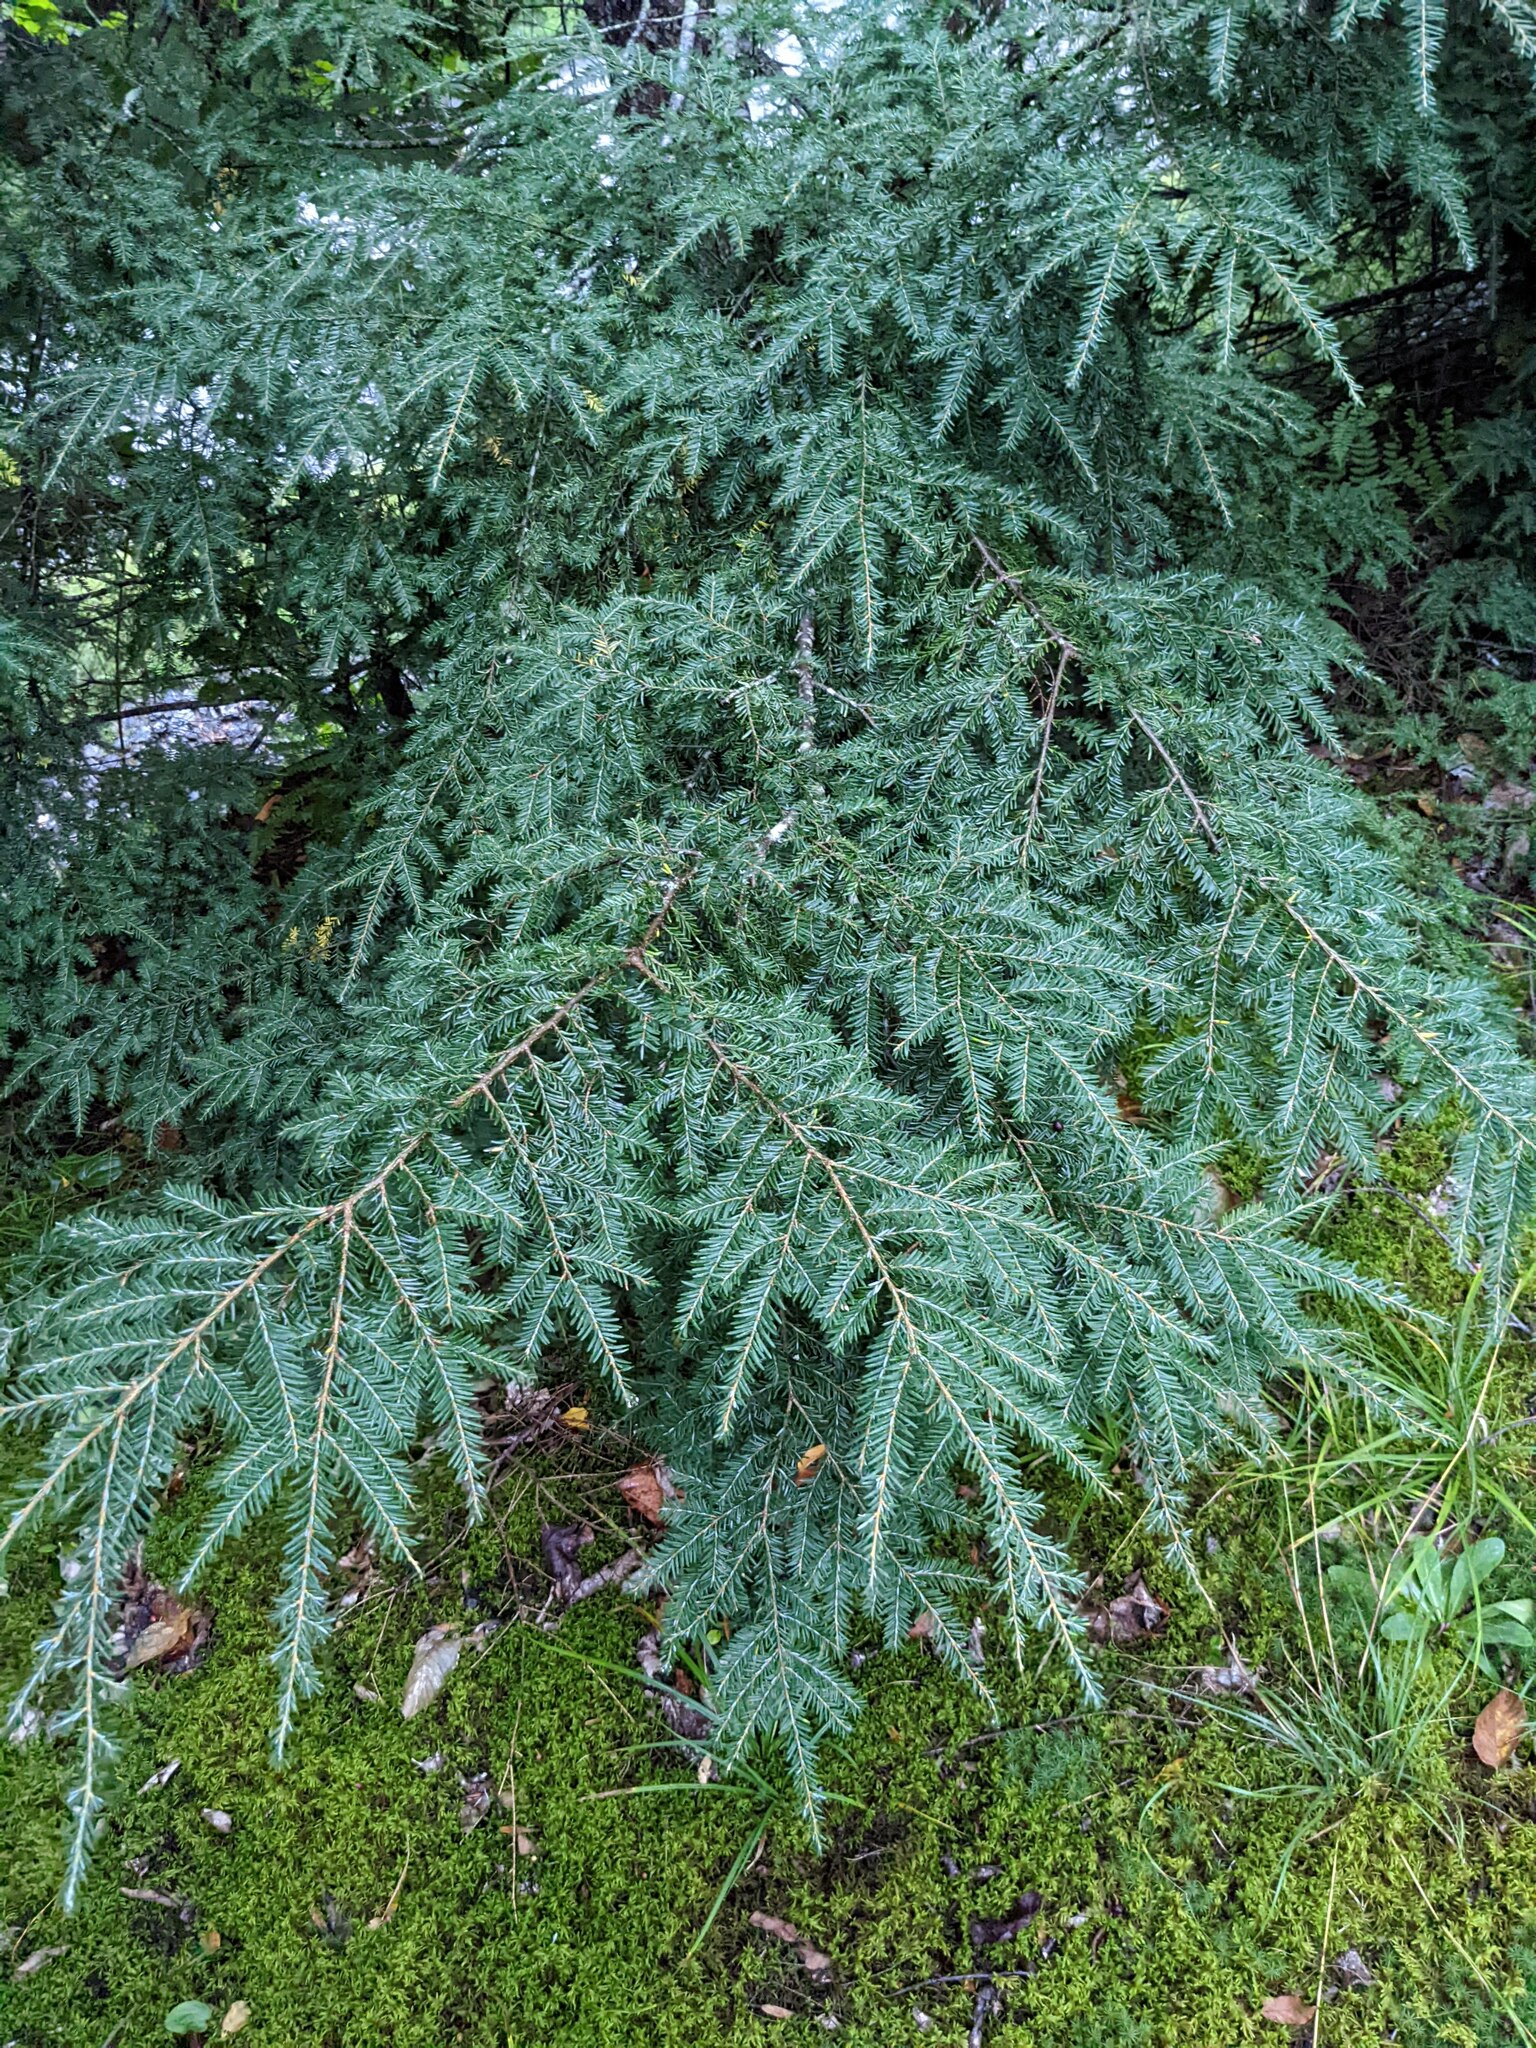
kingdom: Plantae
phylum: Tracheophyta
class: Pinopsida
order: Pinales
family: Pinaceae
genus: Tsuga
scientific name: Tsuga canadensis
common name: Eastern hemlock
